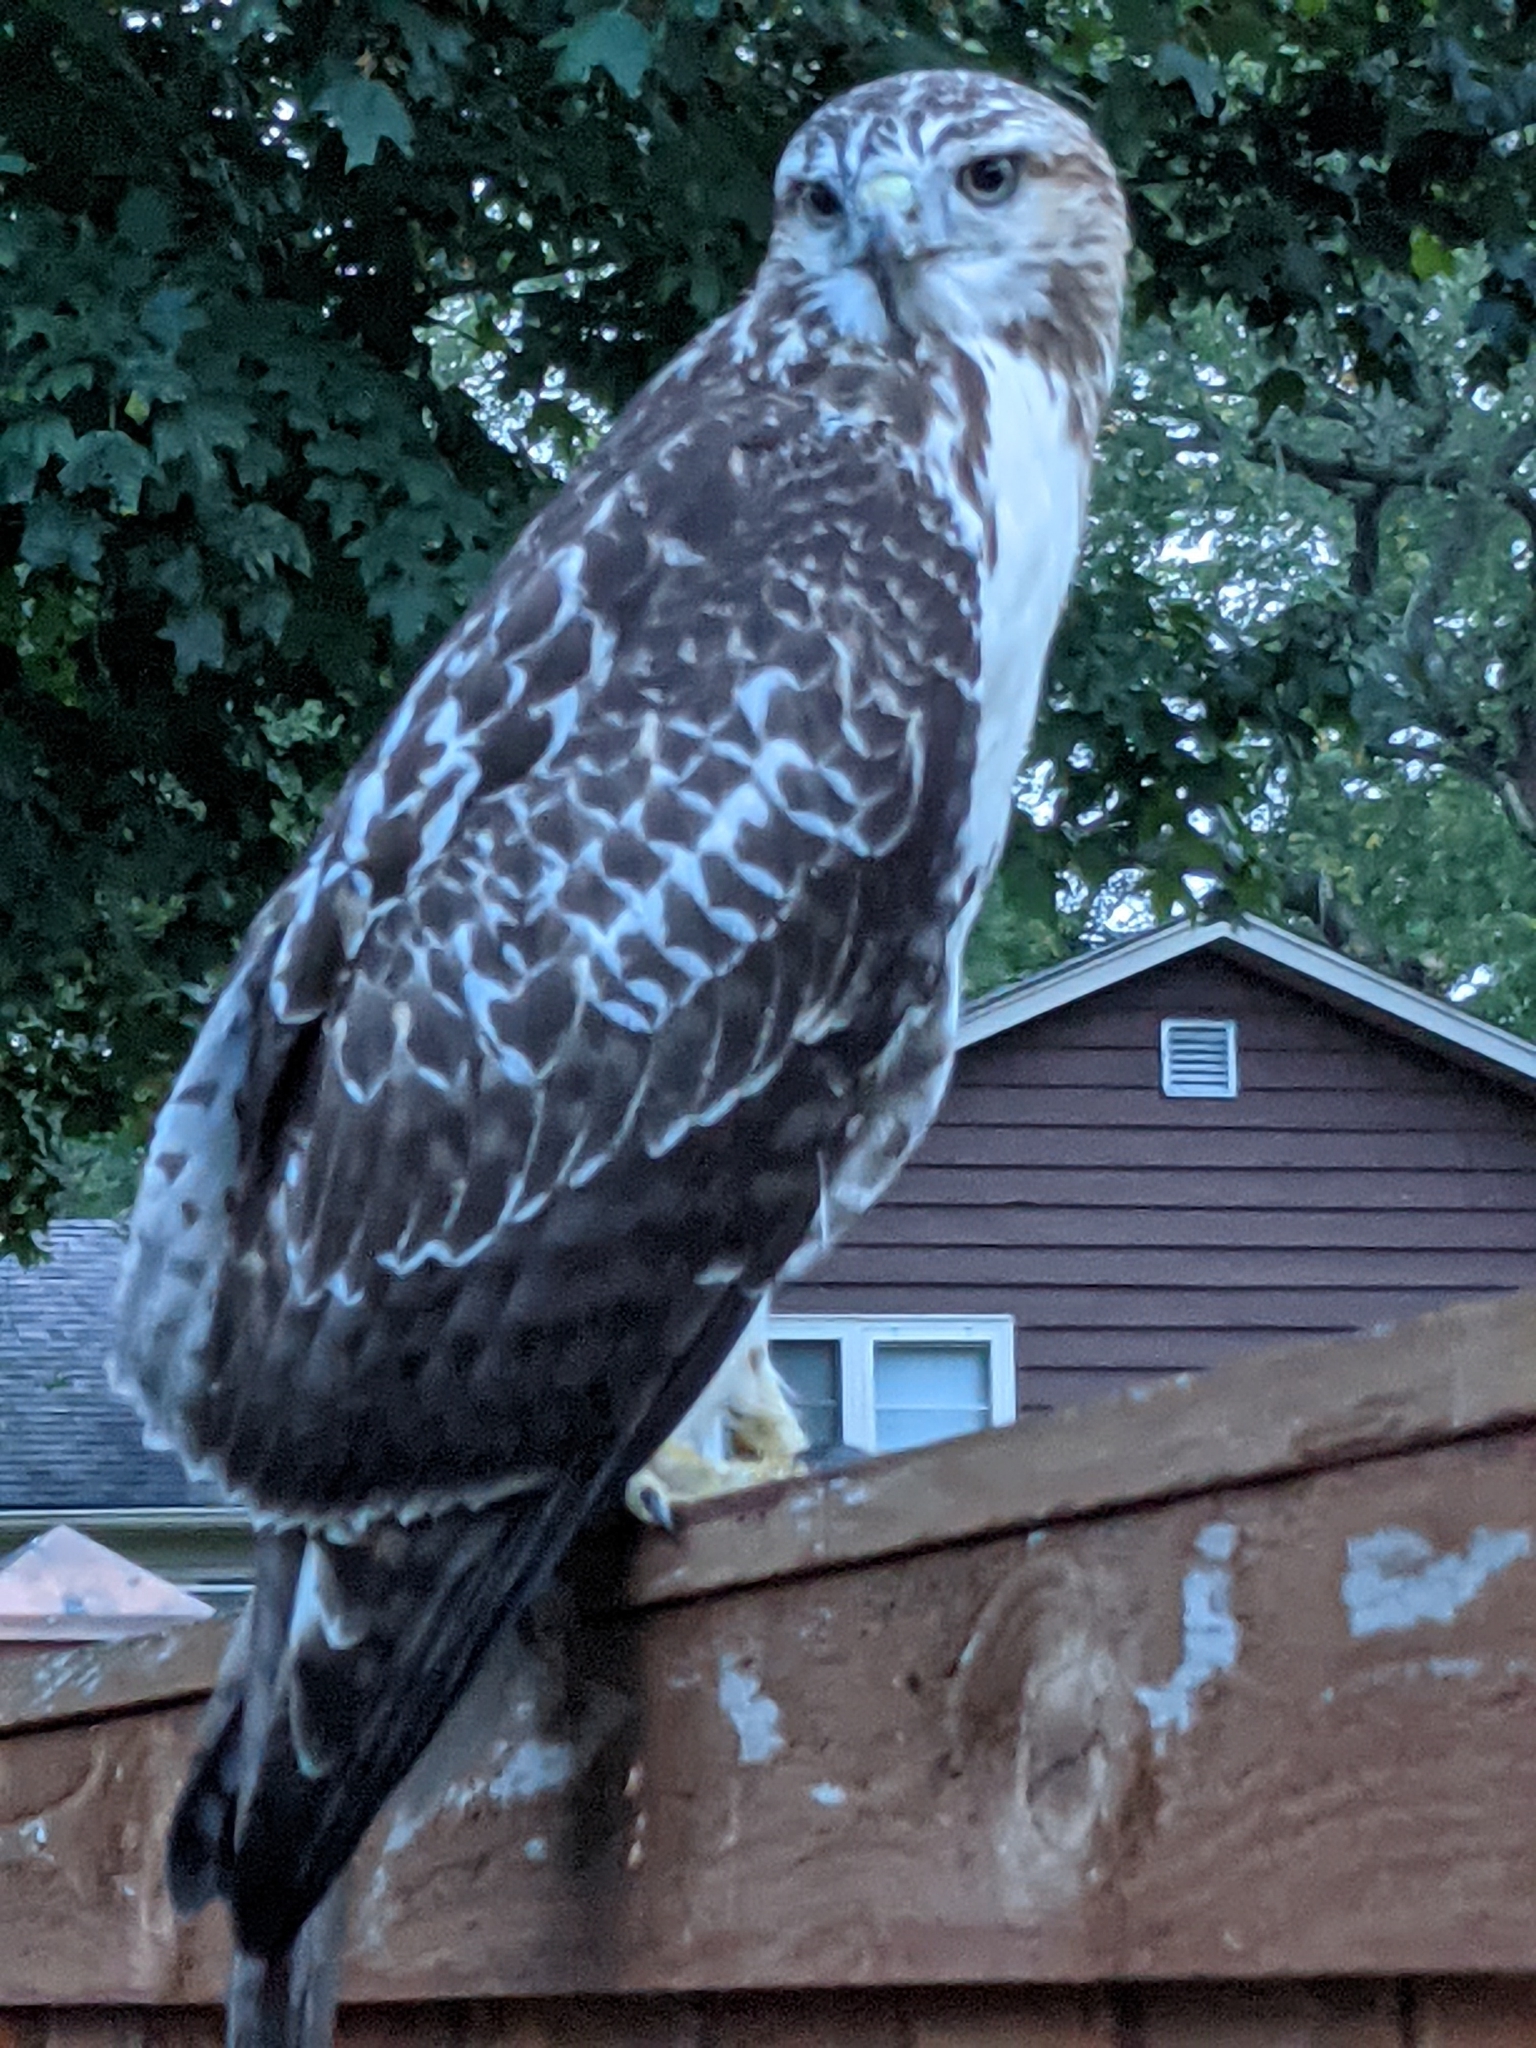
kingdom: Animalia
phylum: Chordata
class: Aves
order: Accipitriformes
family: Accipitridae
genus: Buteo
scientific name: Buteo jamaicensis
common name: Red-tailed hawk
